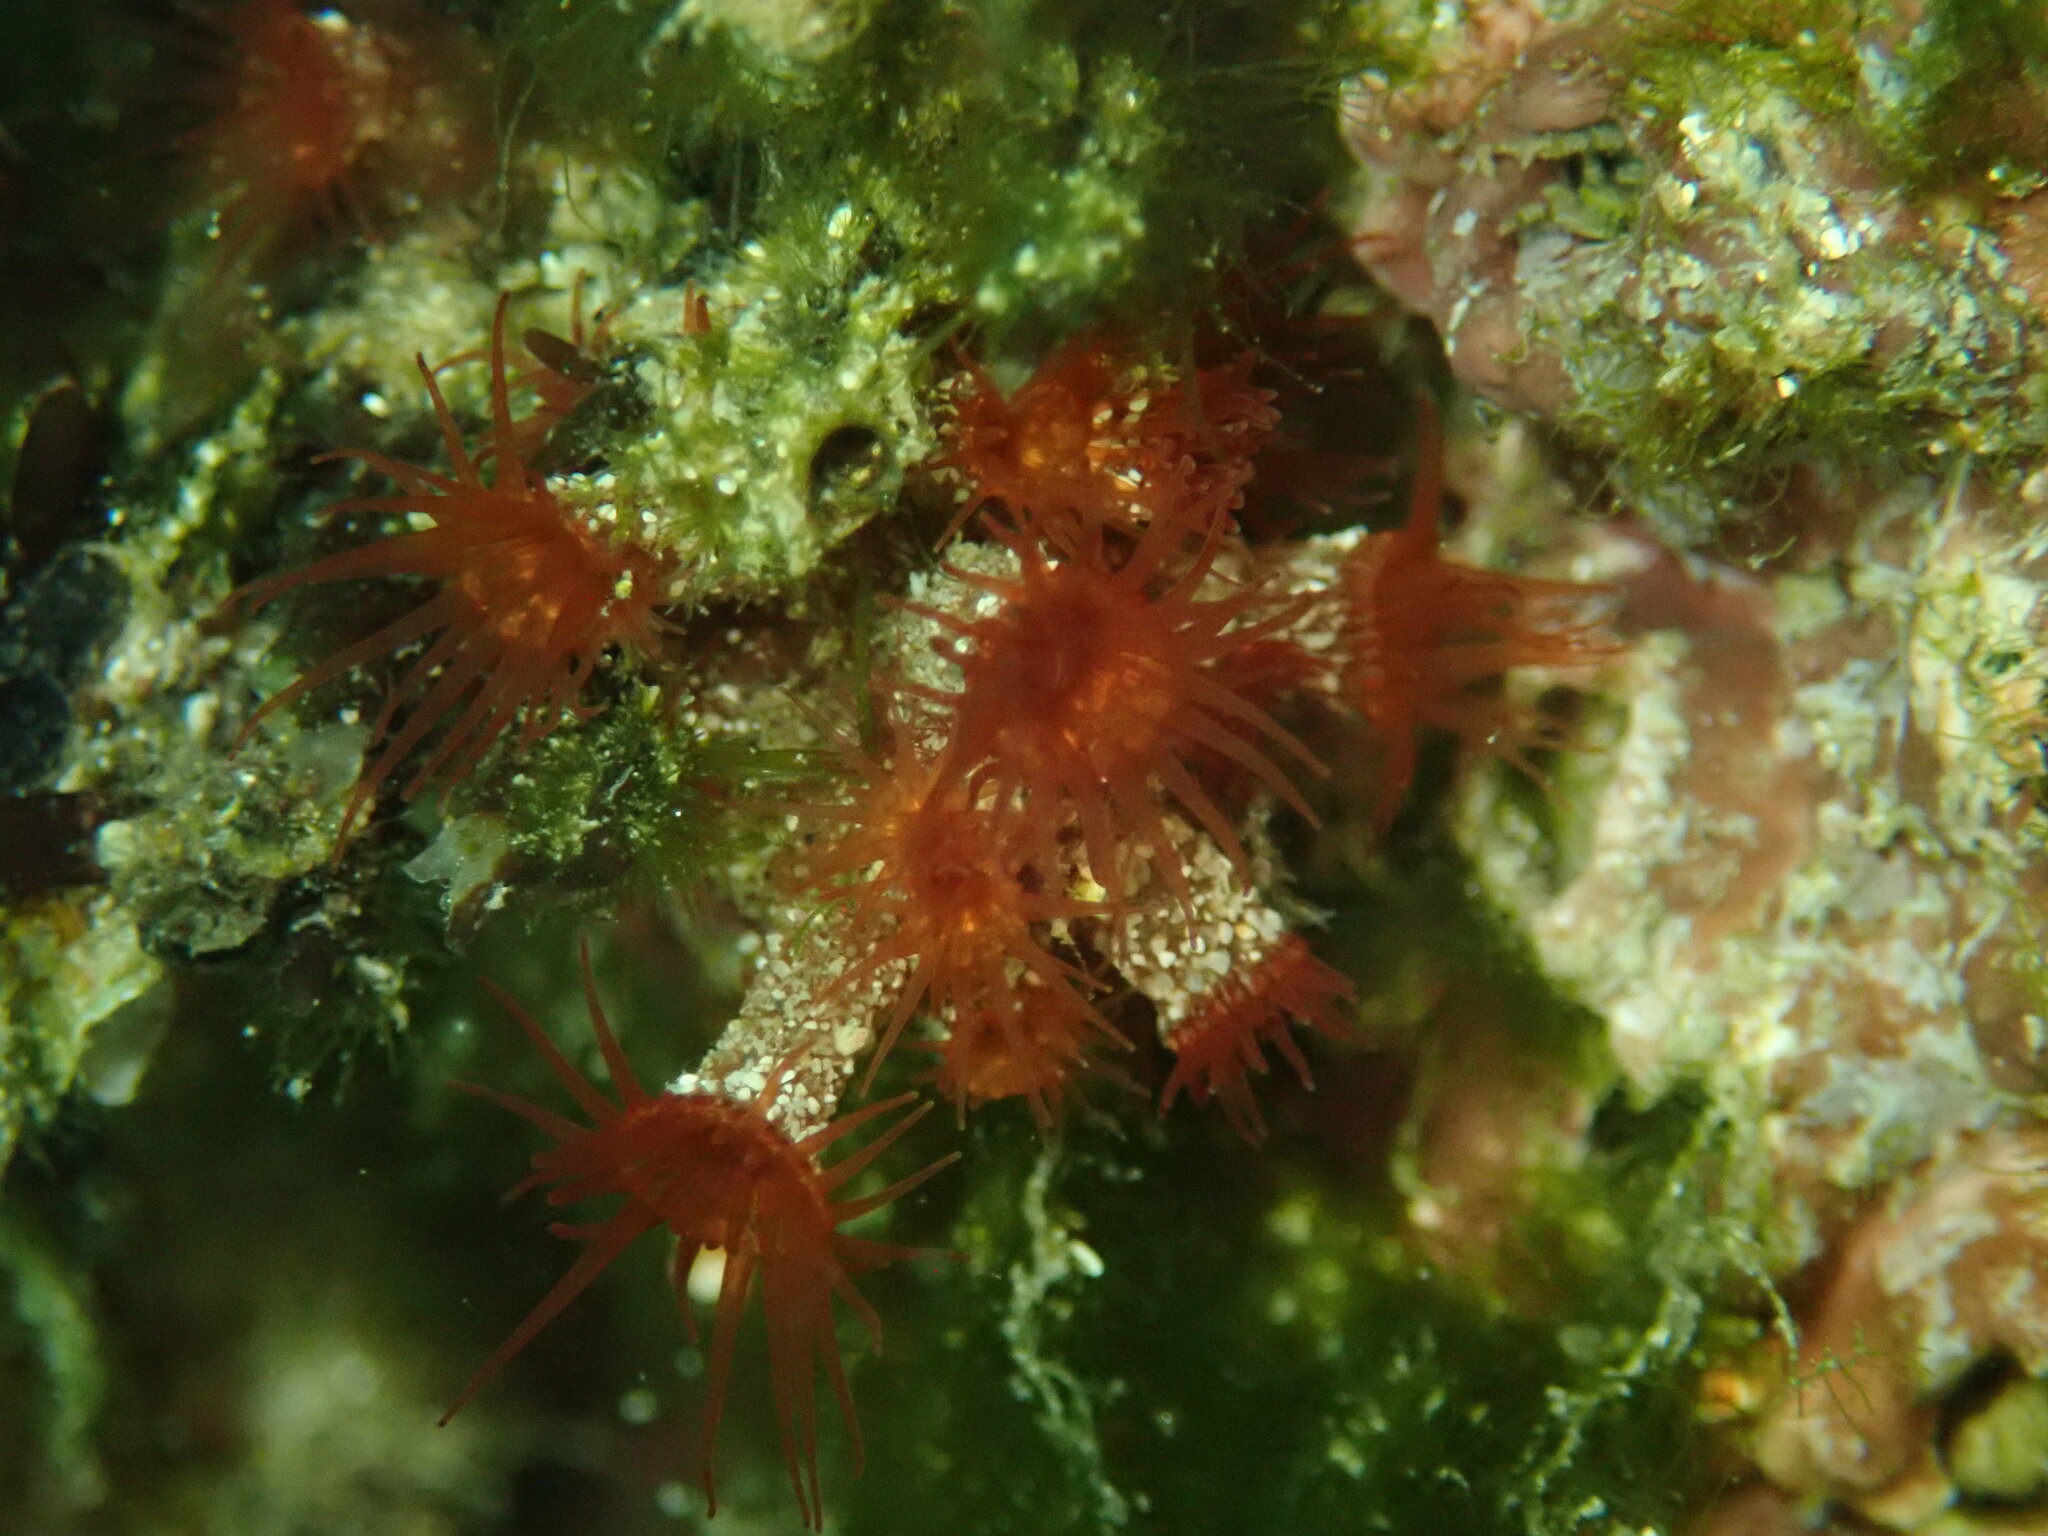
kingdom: Animalia
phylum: Cnidaria
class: Anthozoa
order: Zoantharia
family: Hydrozoanthidae
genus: Terrazoanthus
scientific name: Terrazoanthus patagonichus
